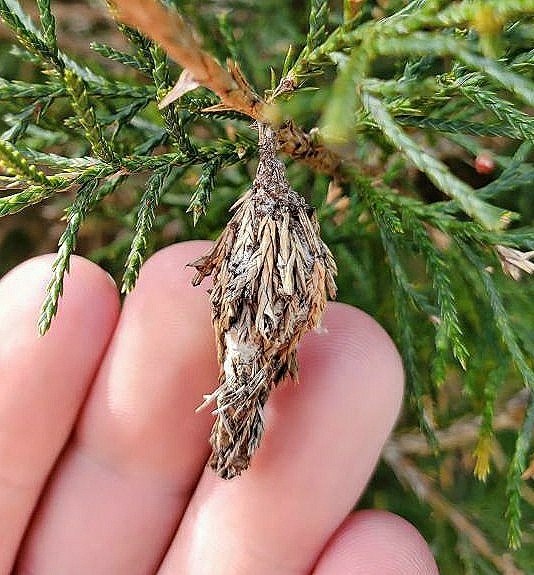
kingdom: Animalia
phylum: Arthropoda
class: Insecta
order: Lepidoptera
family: Psychidae
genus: Thyridopteryx
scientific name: Thyridopteryx ephemeraeformis
